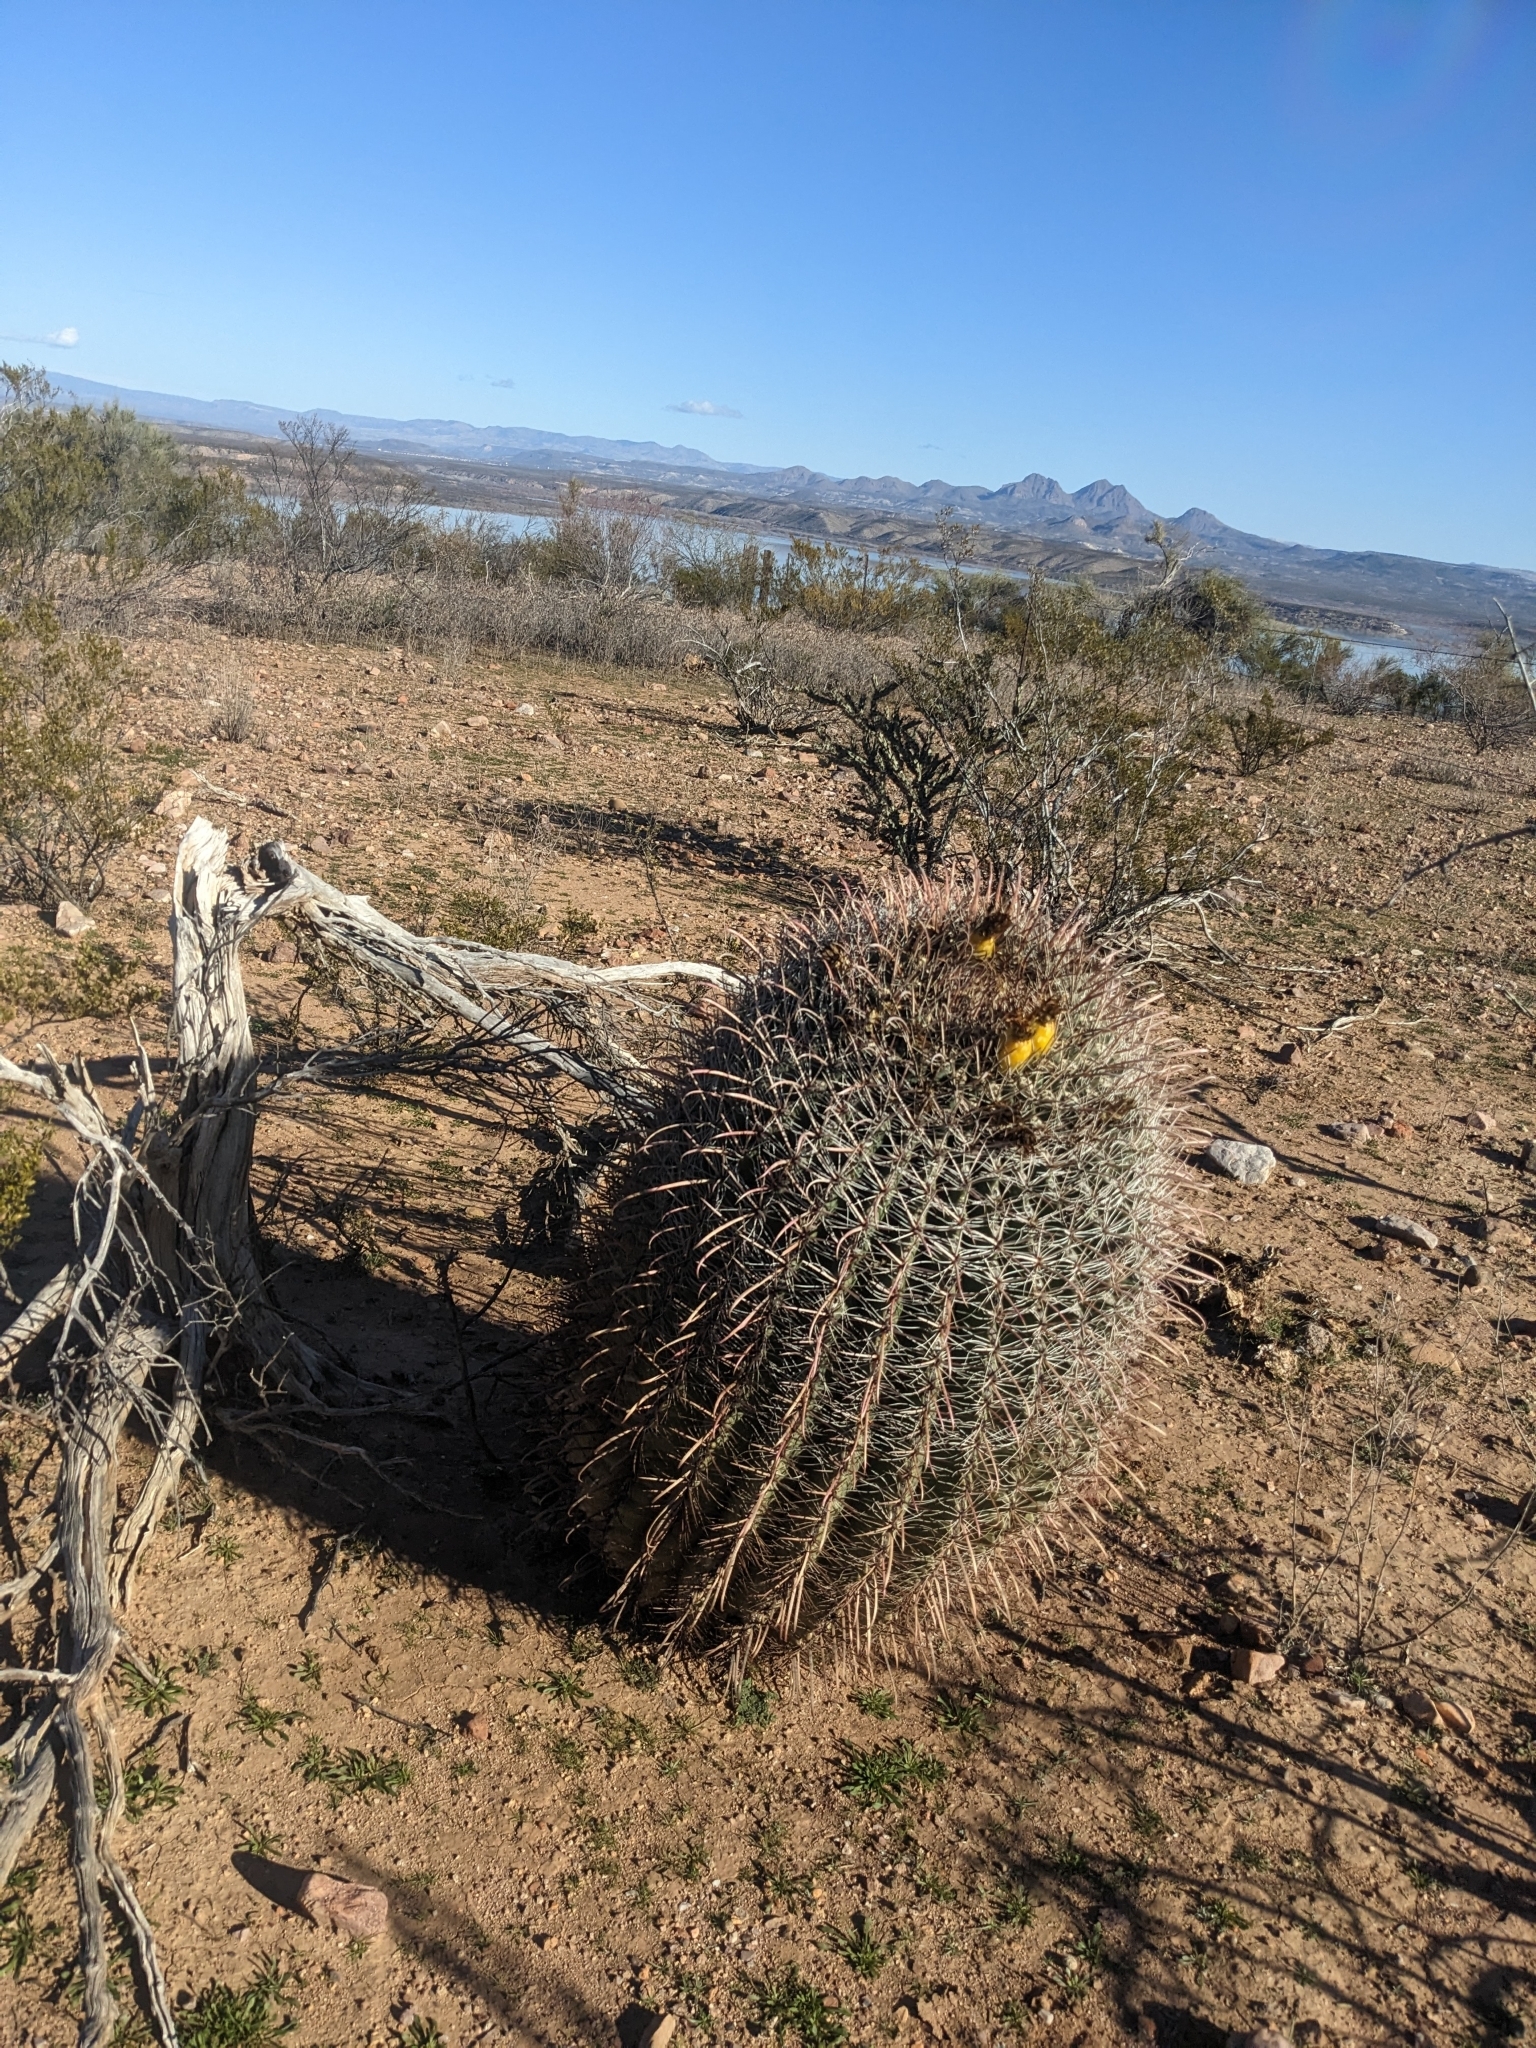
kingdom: Plantae
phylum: Tracheophyta
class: Magnoliopsida
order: Caryophyllales
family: Cactaceae
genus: Ferocactus
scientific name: Ferocactus wislizeni
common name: Candy barrel cactus
